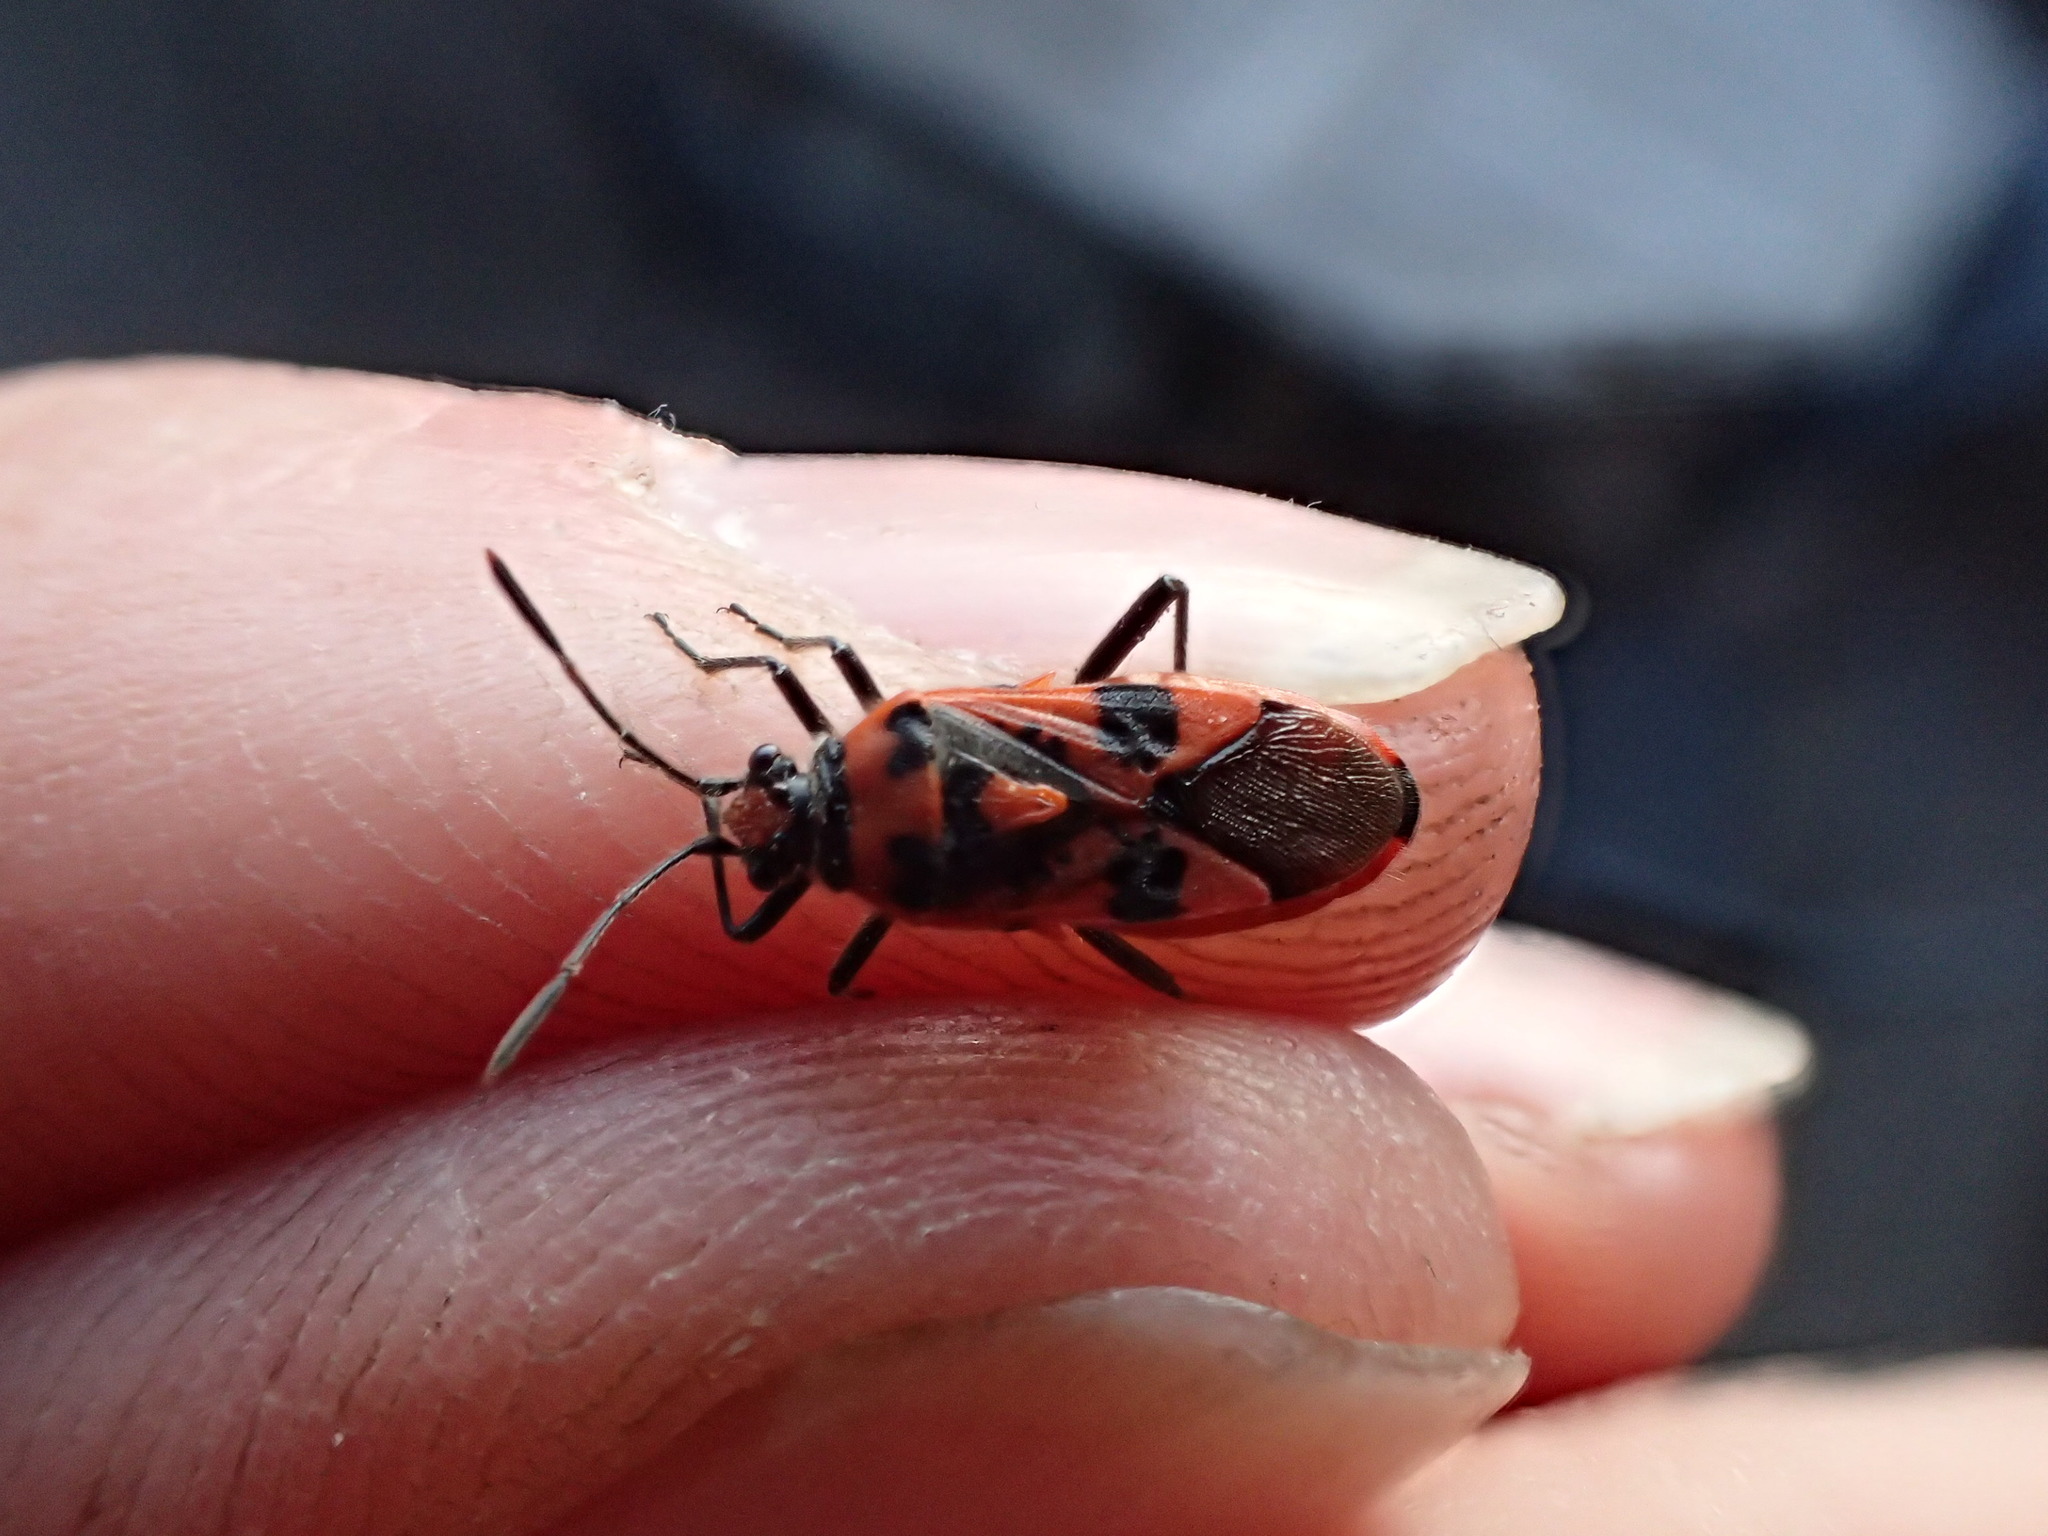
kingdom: Animalia
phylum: Arthropoda
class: Insecta
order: Hemiptera
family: Rhopalidae
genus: Corizus
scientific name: Corizus hyoscyami
